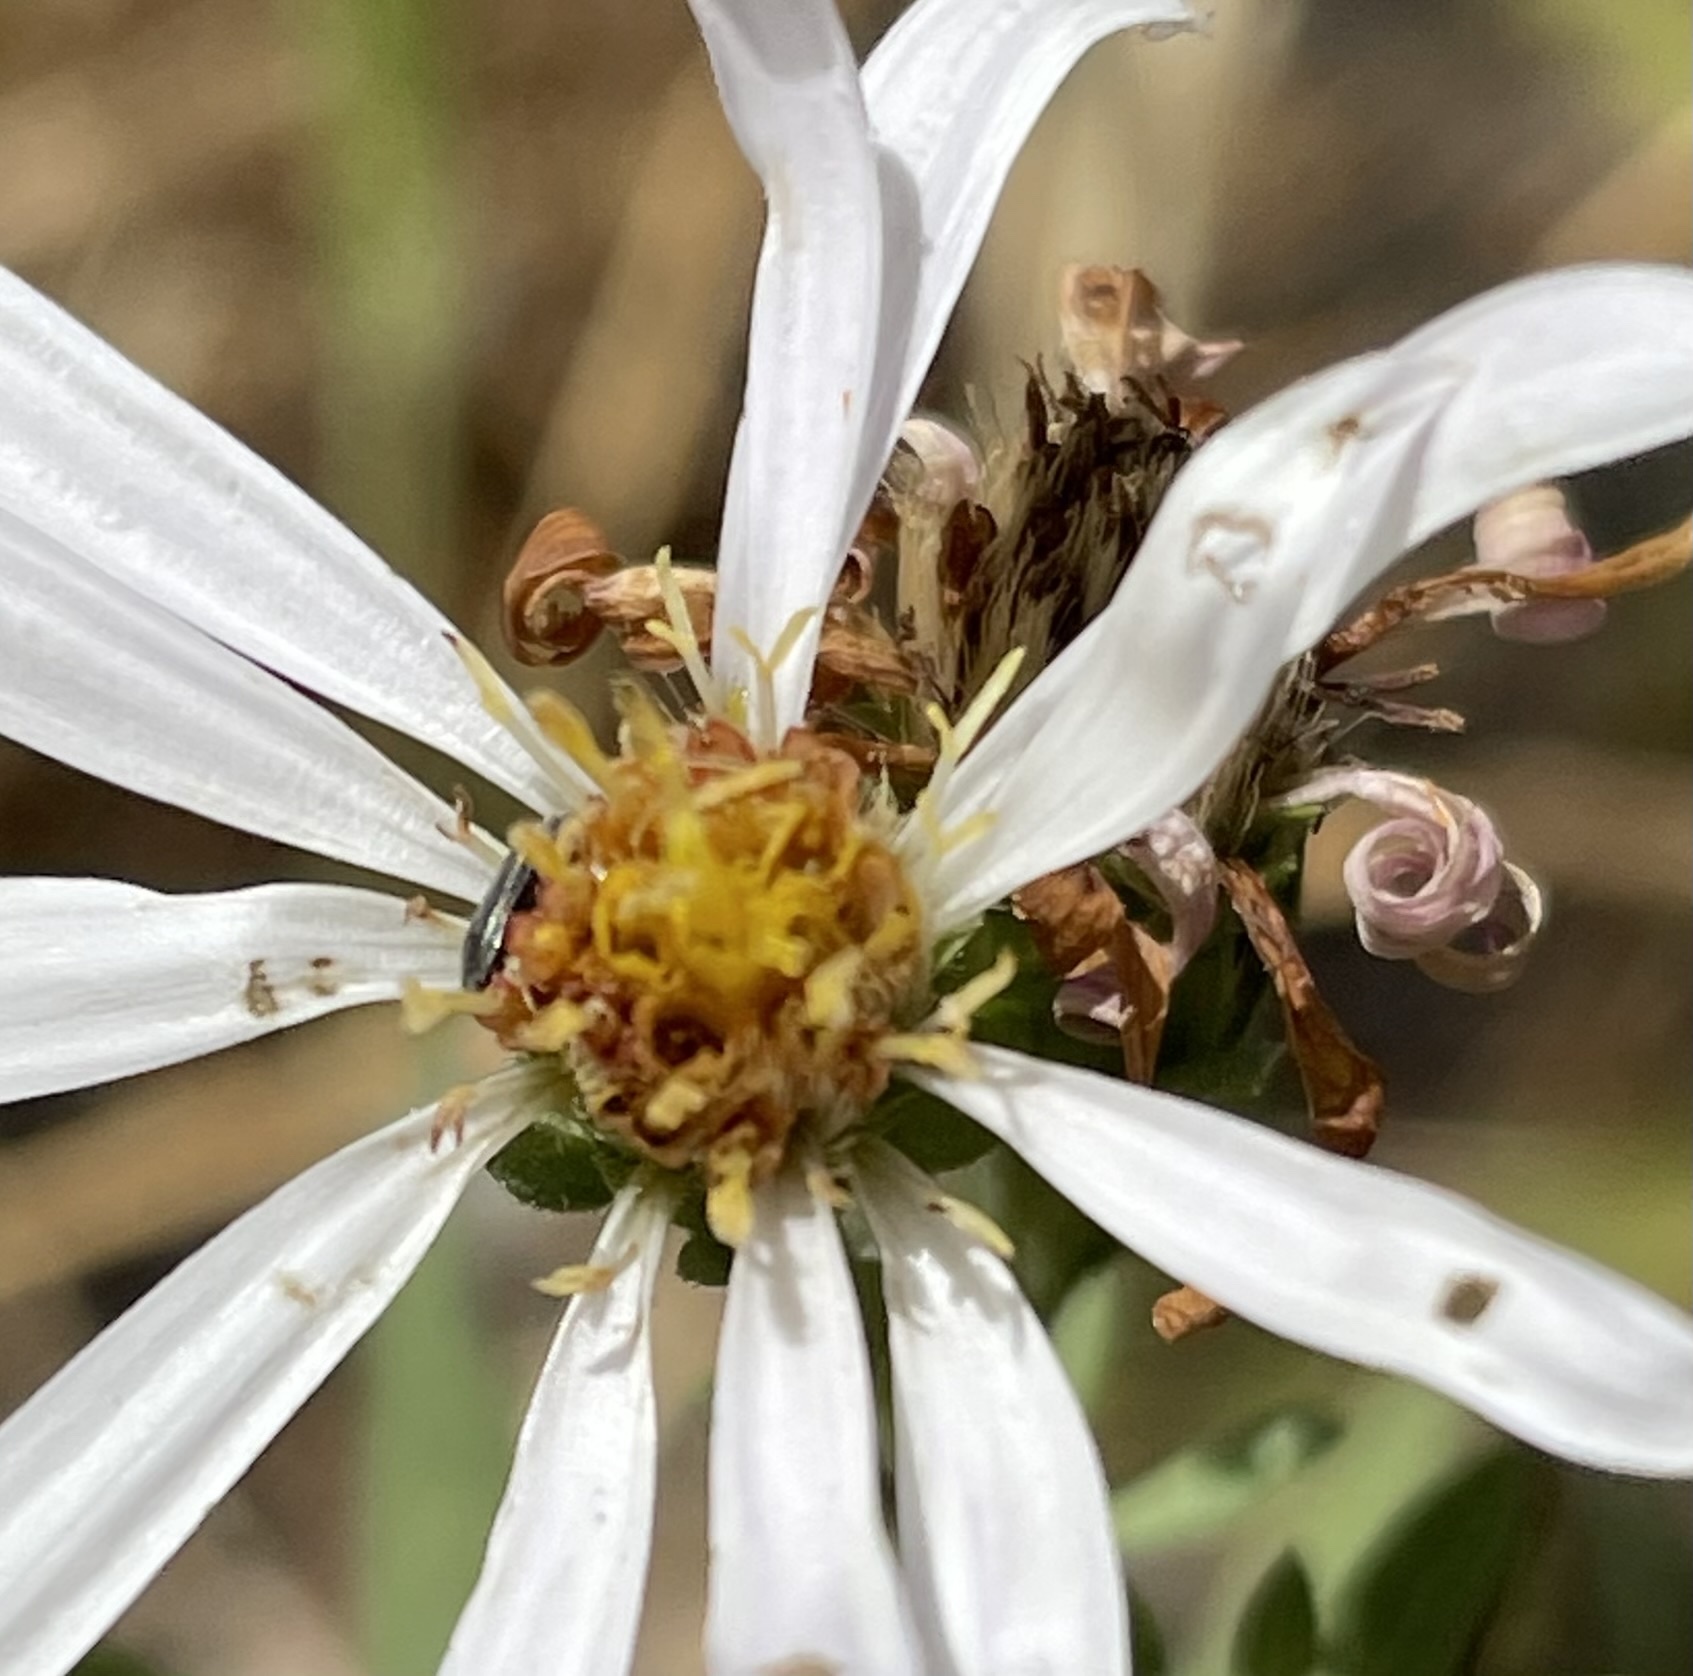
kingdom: Plantae
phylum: Tracheophyta
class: Magnoliopsida
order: Asterales
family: Asteraceae
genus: Eurybia
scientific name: Eurybia radulina
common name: Rough-leaved aster
